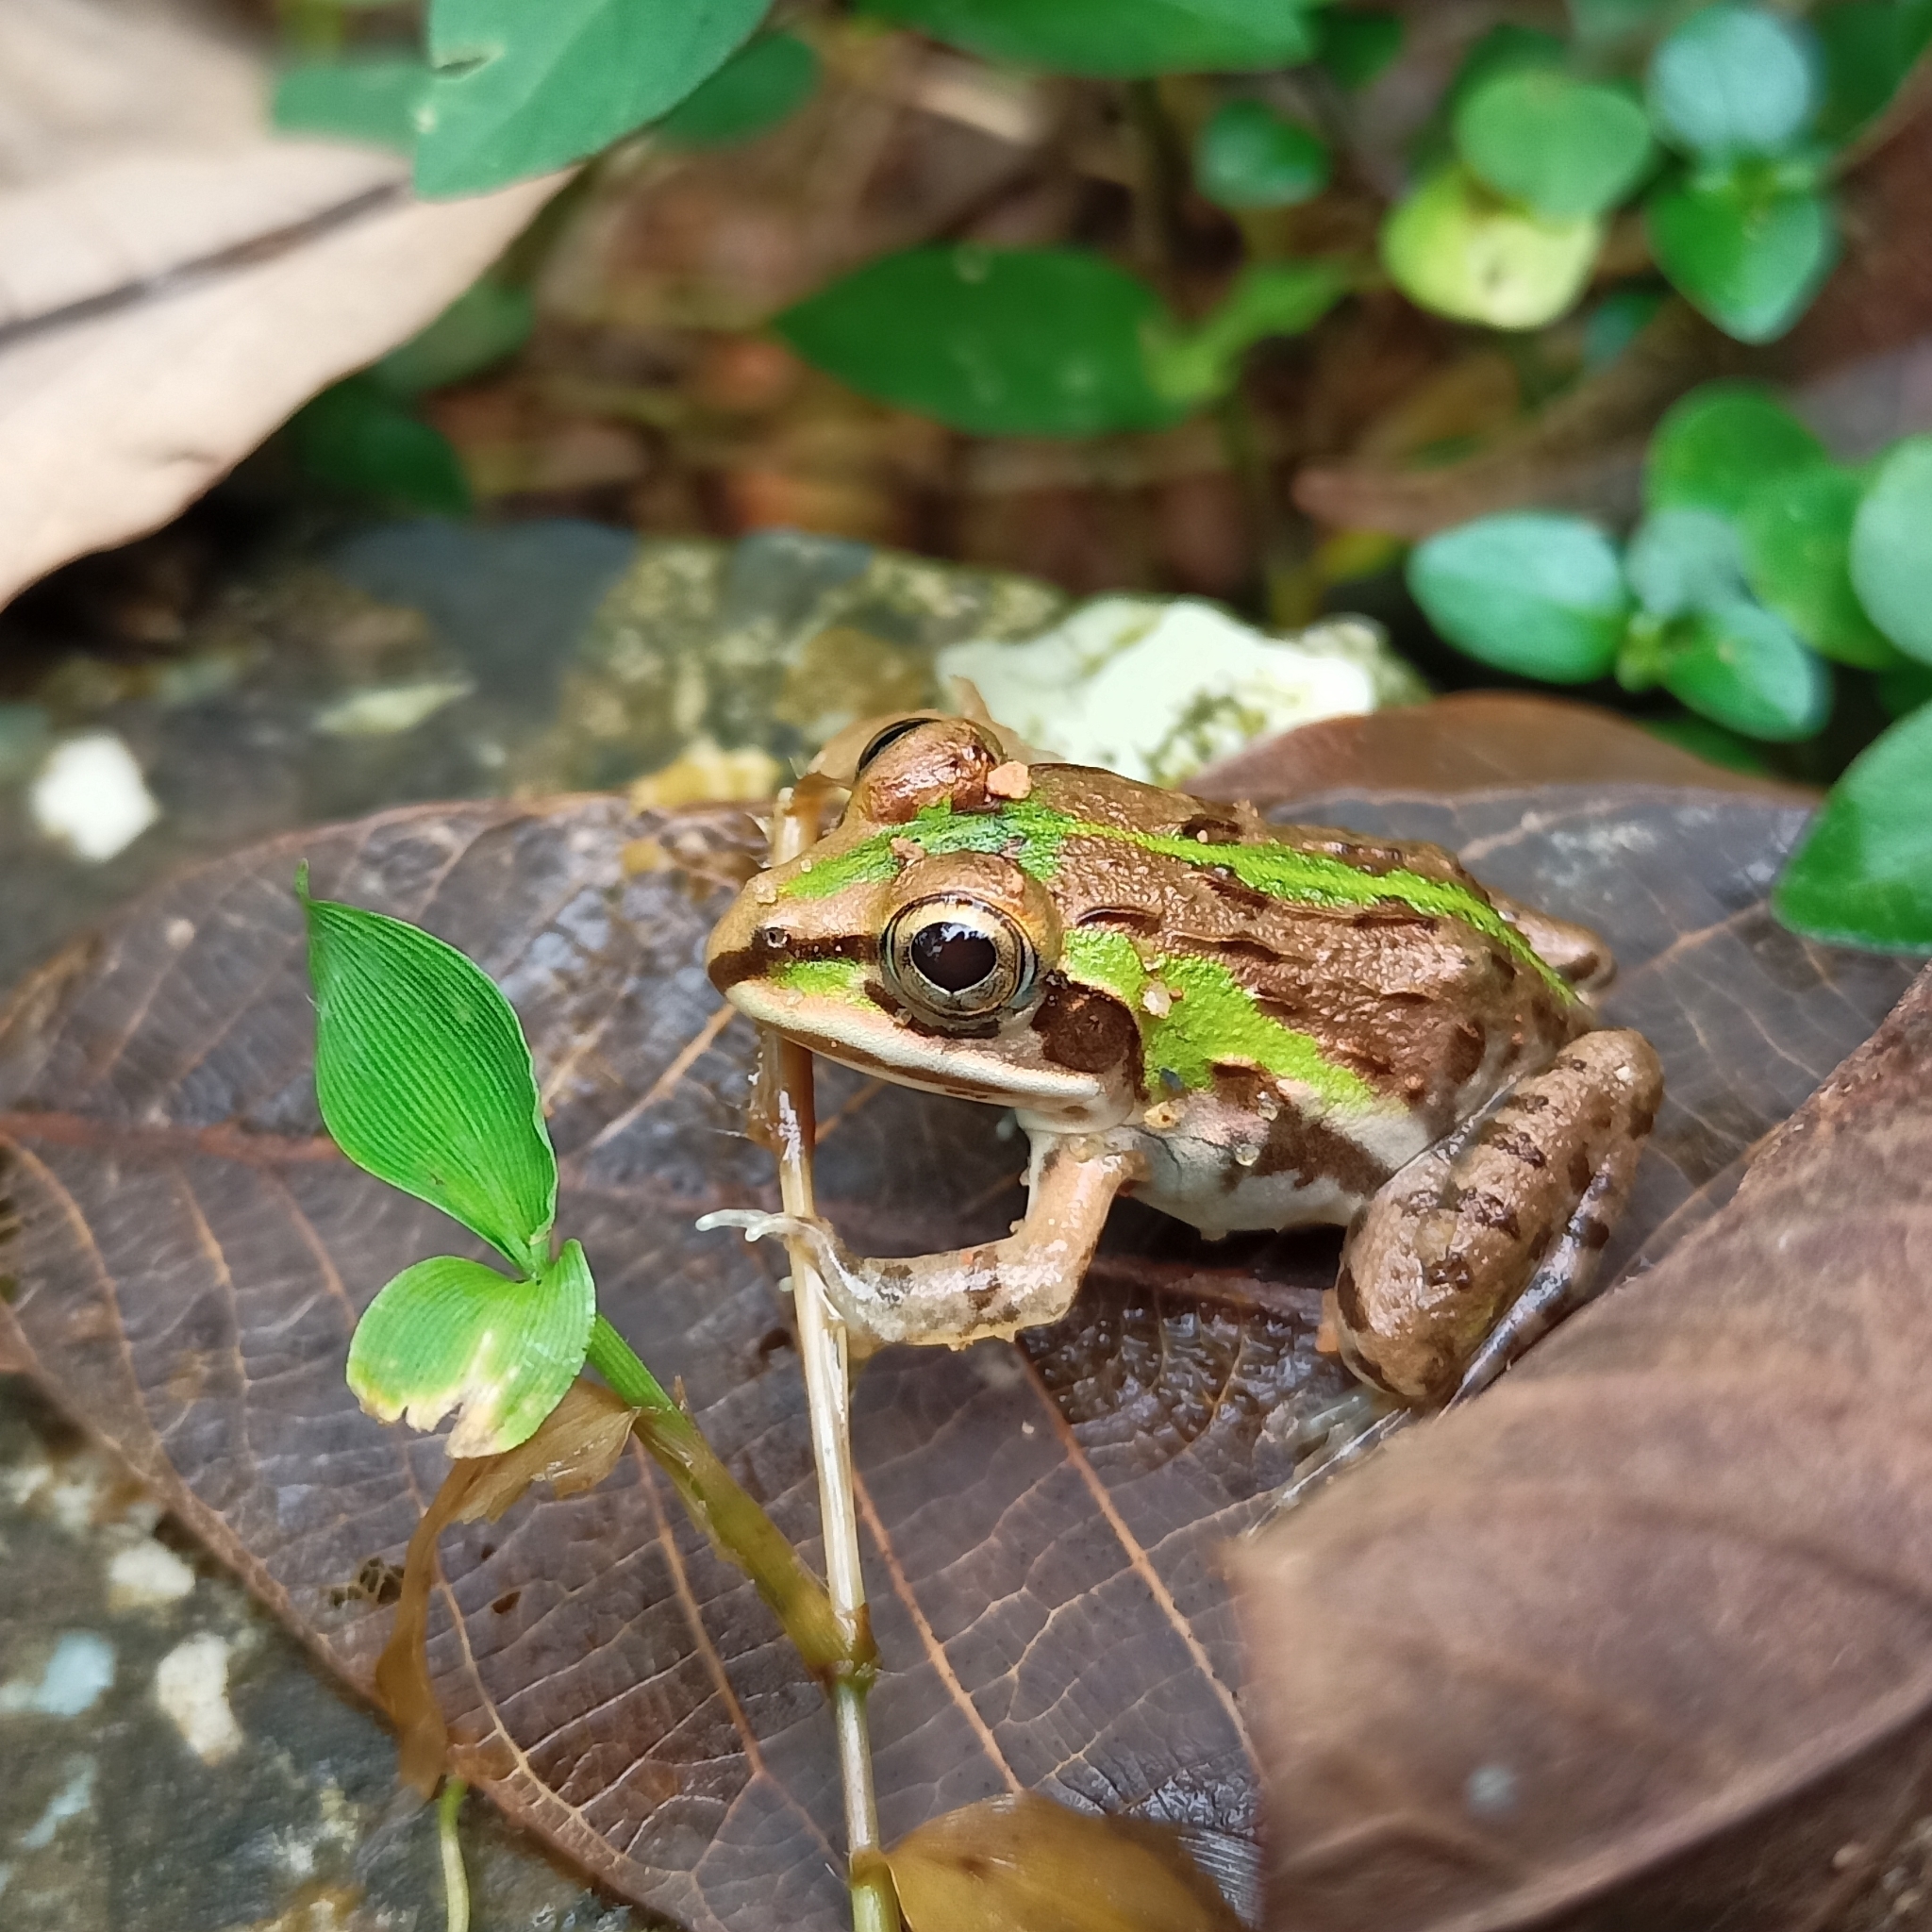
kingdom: Animalia
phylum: Chordata
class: Amphibia
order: Anura
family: Dicroglossidae
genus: Hoplobatrachus
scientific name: Hoplobatrachus tigerinus
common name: Indian bullfrog
